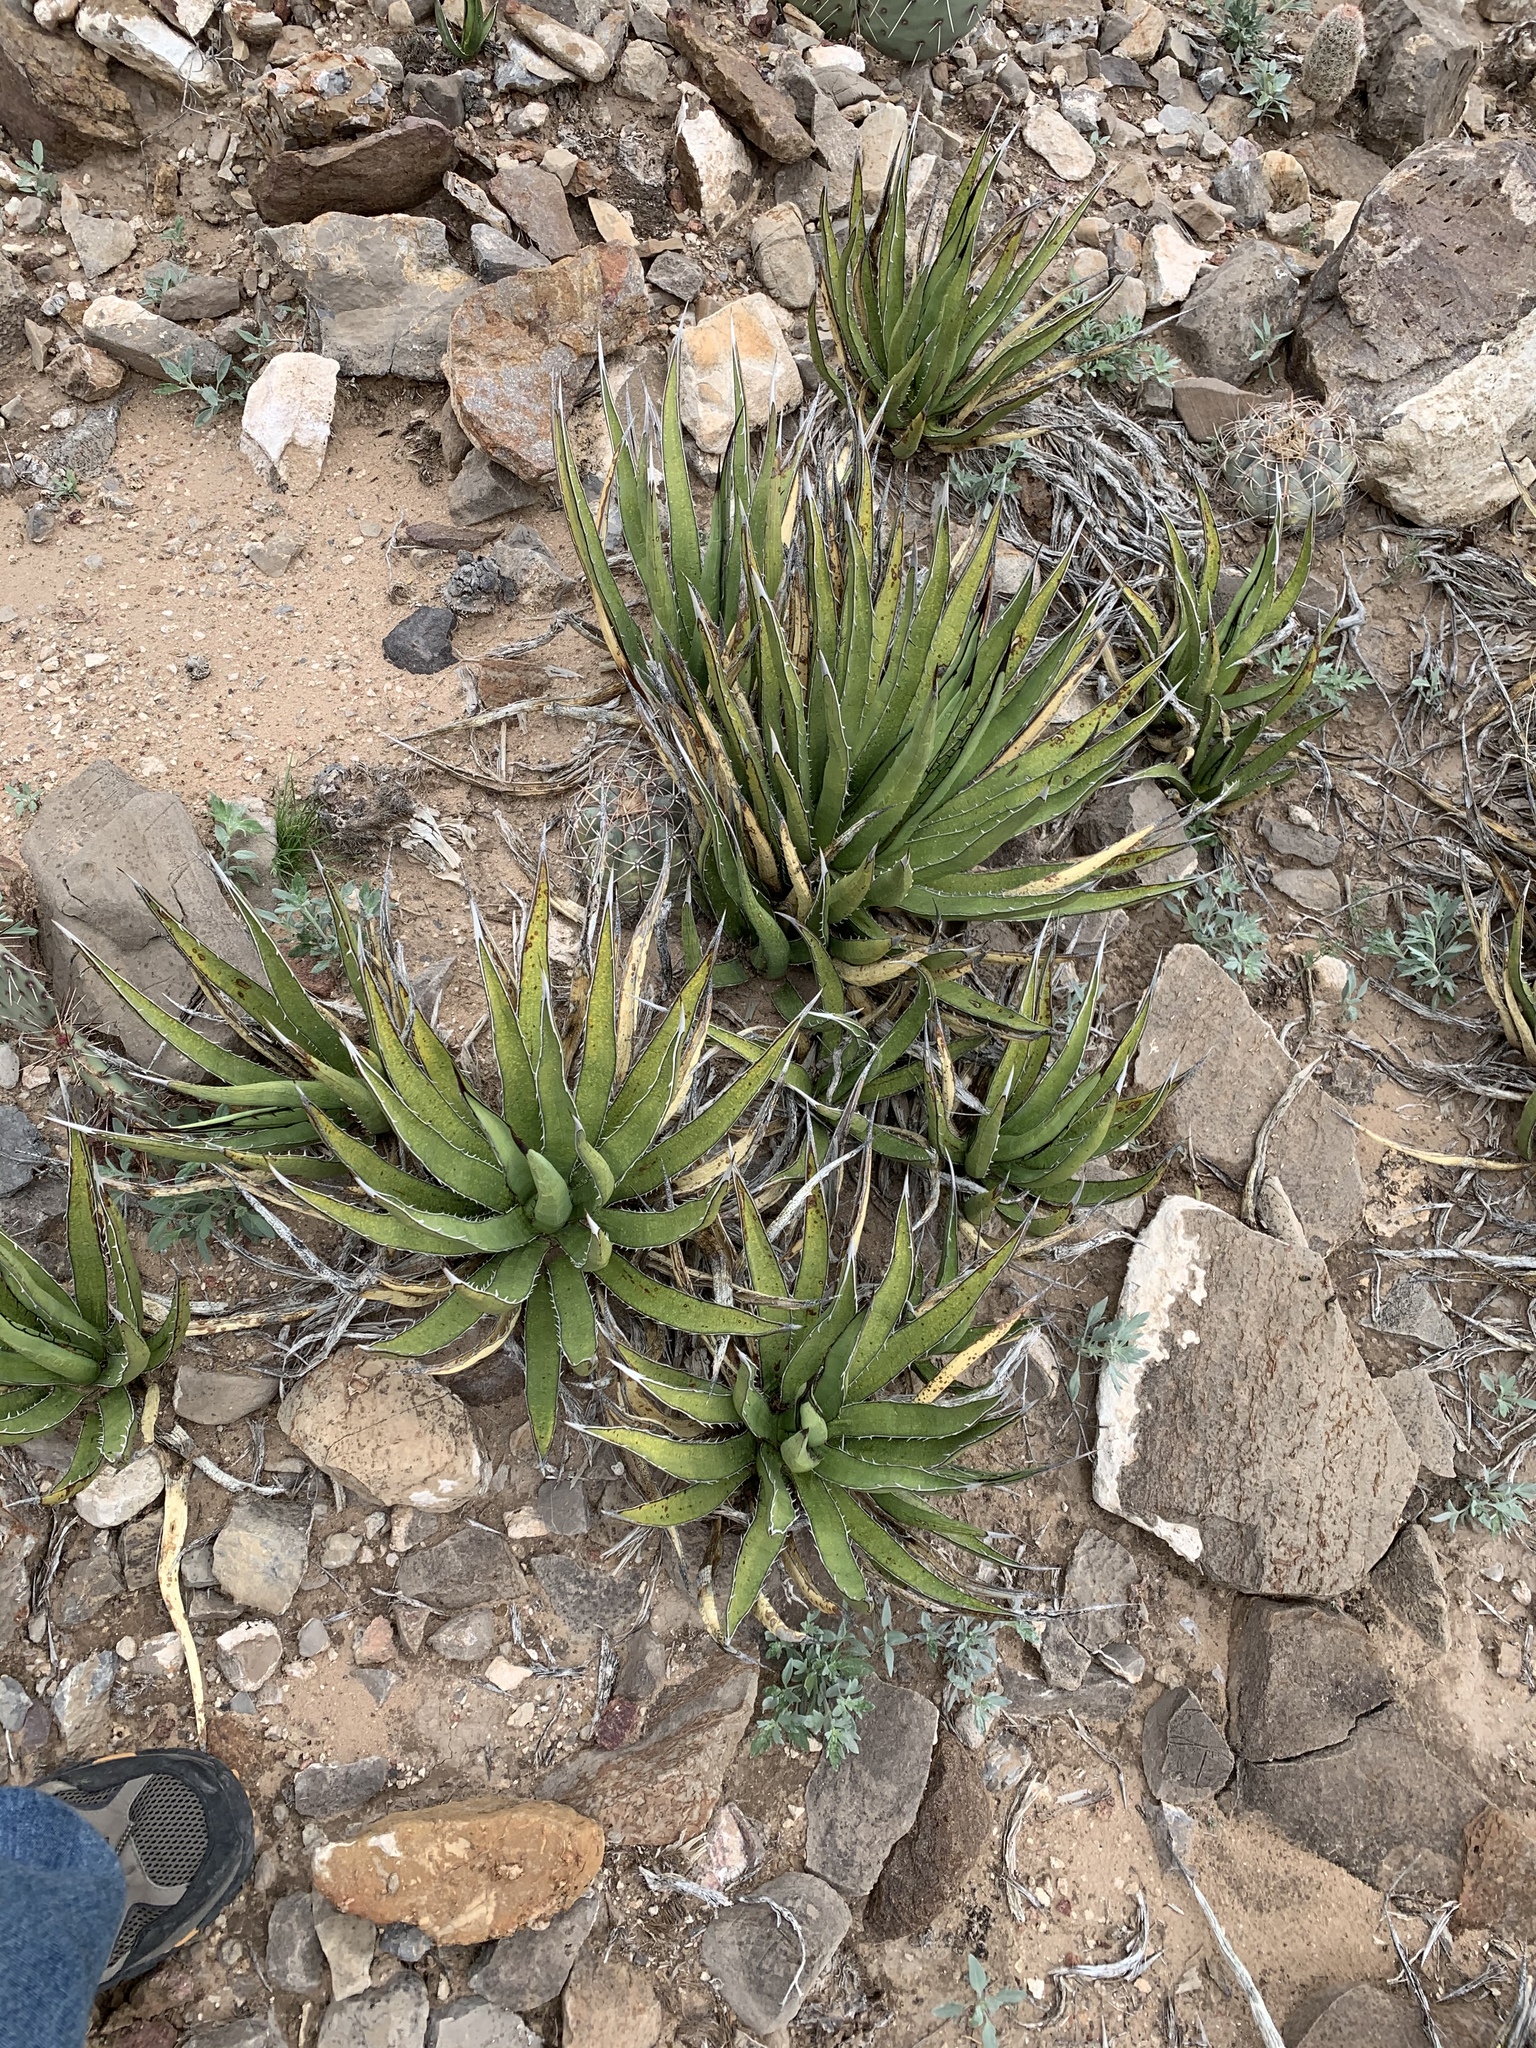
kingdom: Plantae
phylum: Tracheophyta
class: Liliopsida
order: Asparagales
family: Asparagaceae
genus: Agave
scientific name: Agave lechuguilla
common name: Lecheguilla agave
